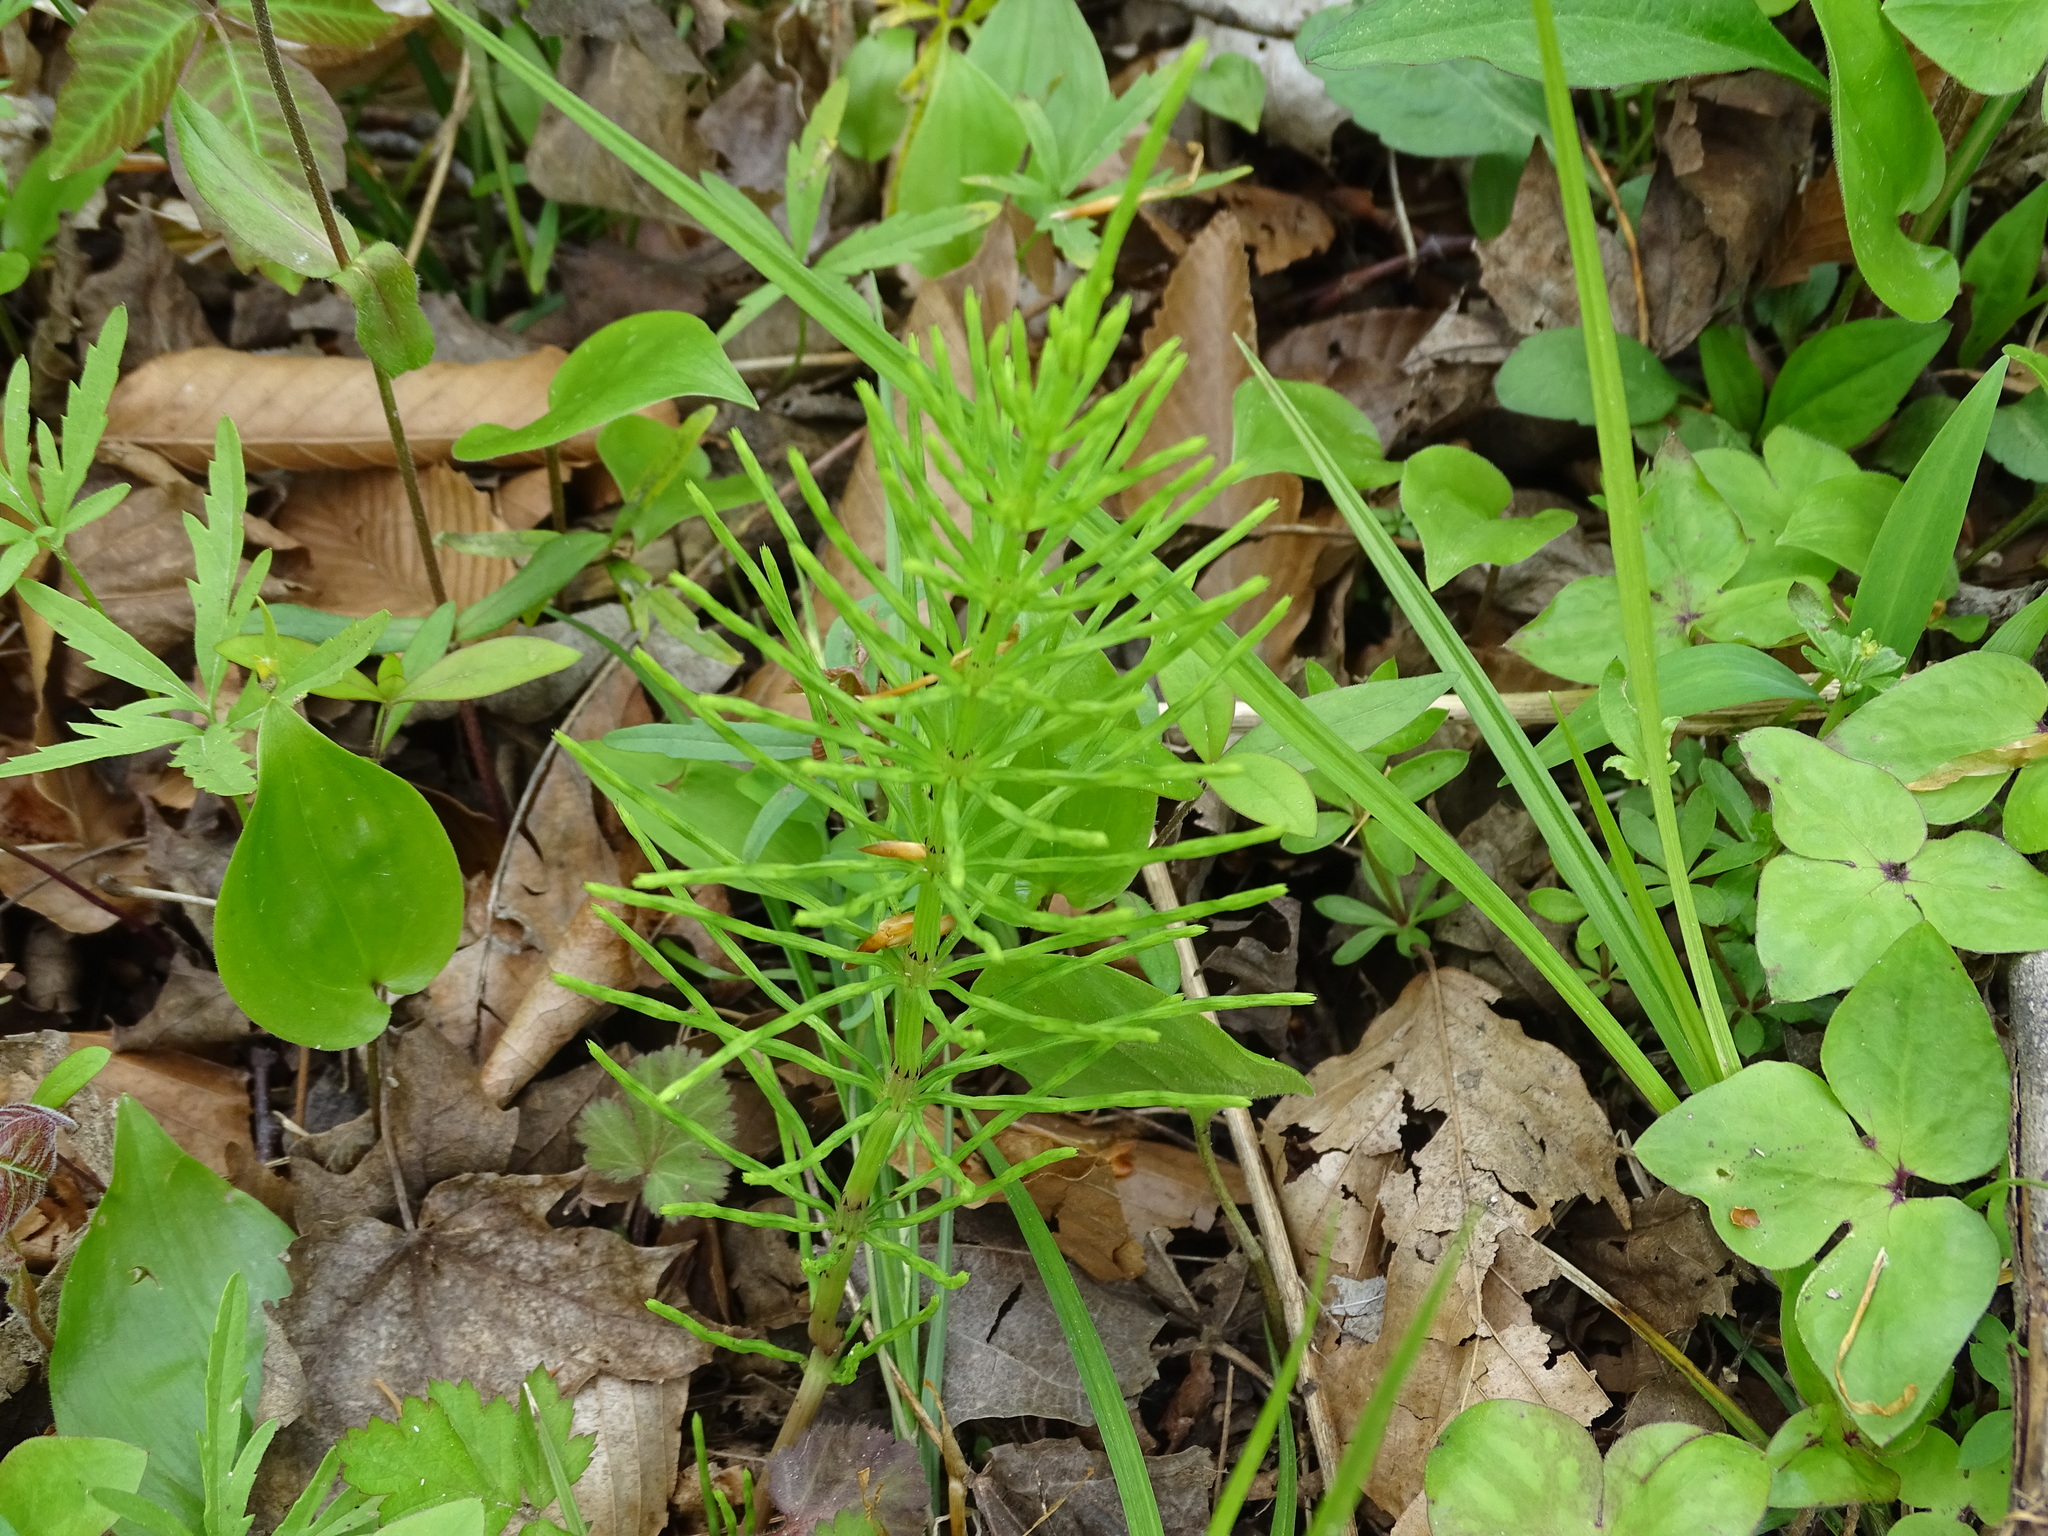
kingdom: Plantae
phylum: Tracheophyta
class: Polypodiopsida
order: Equisetales
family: Equisetaceae
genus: Equisetum
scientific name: Equisetum arvense
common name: Field horsetail
